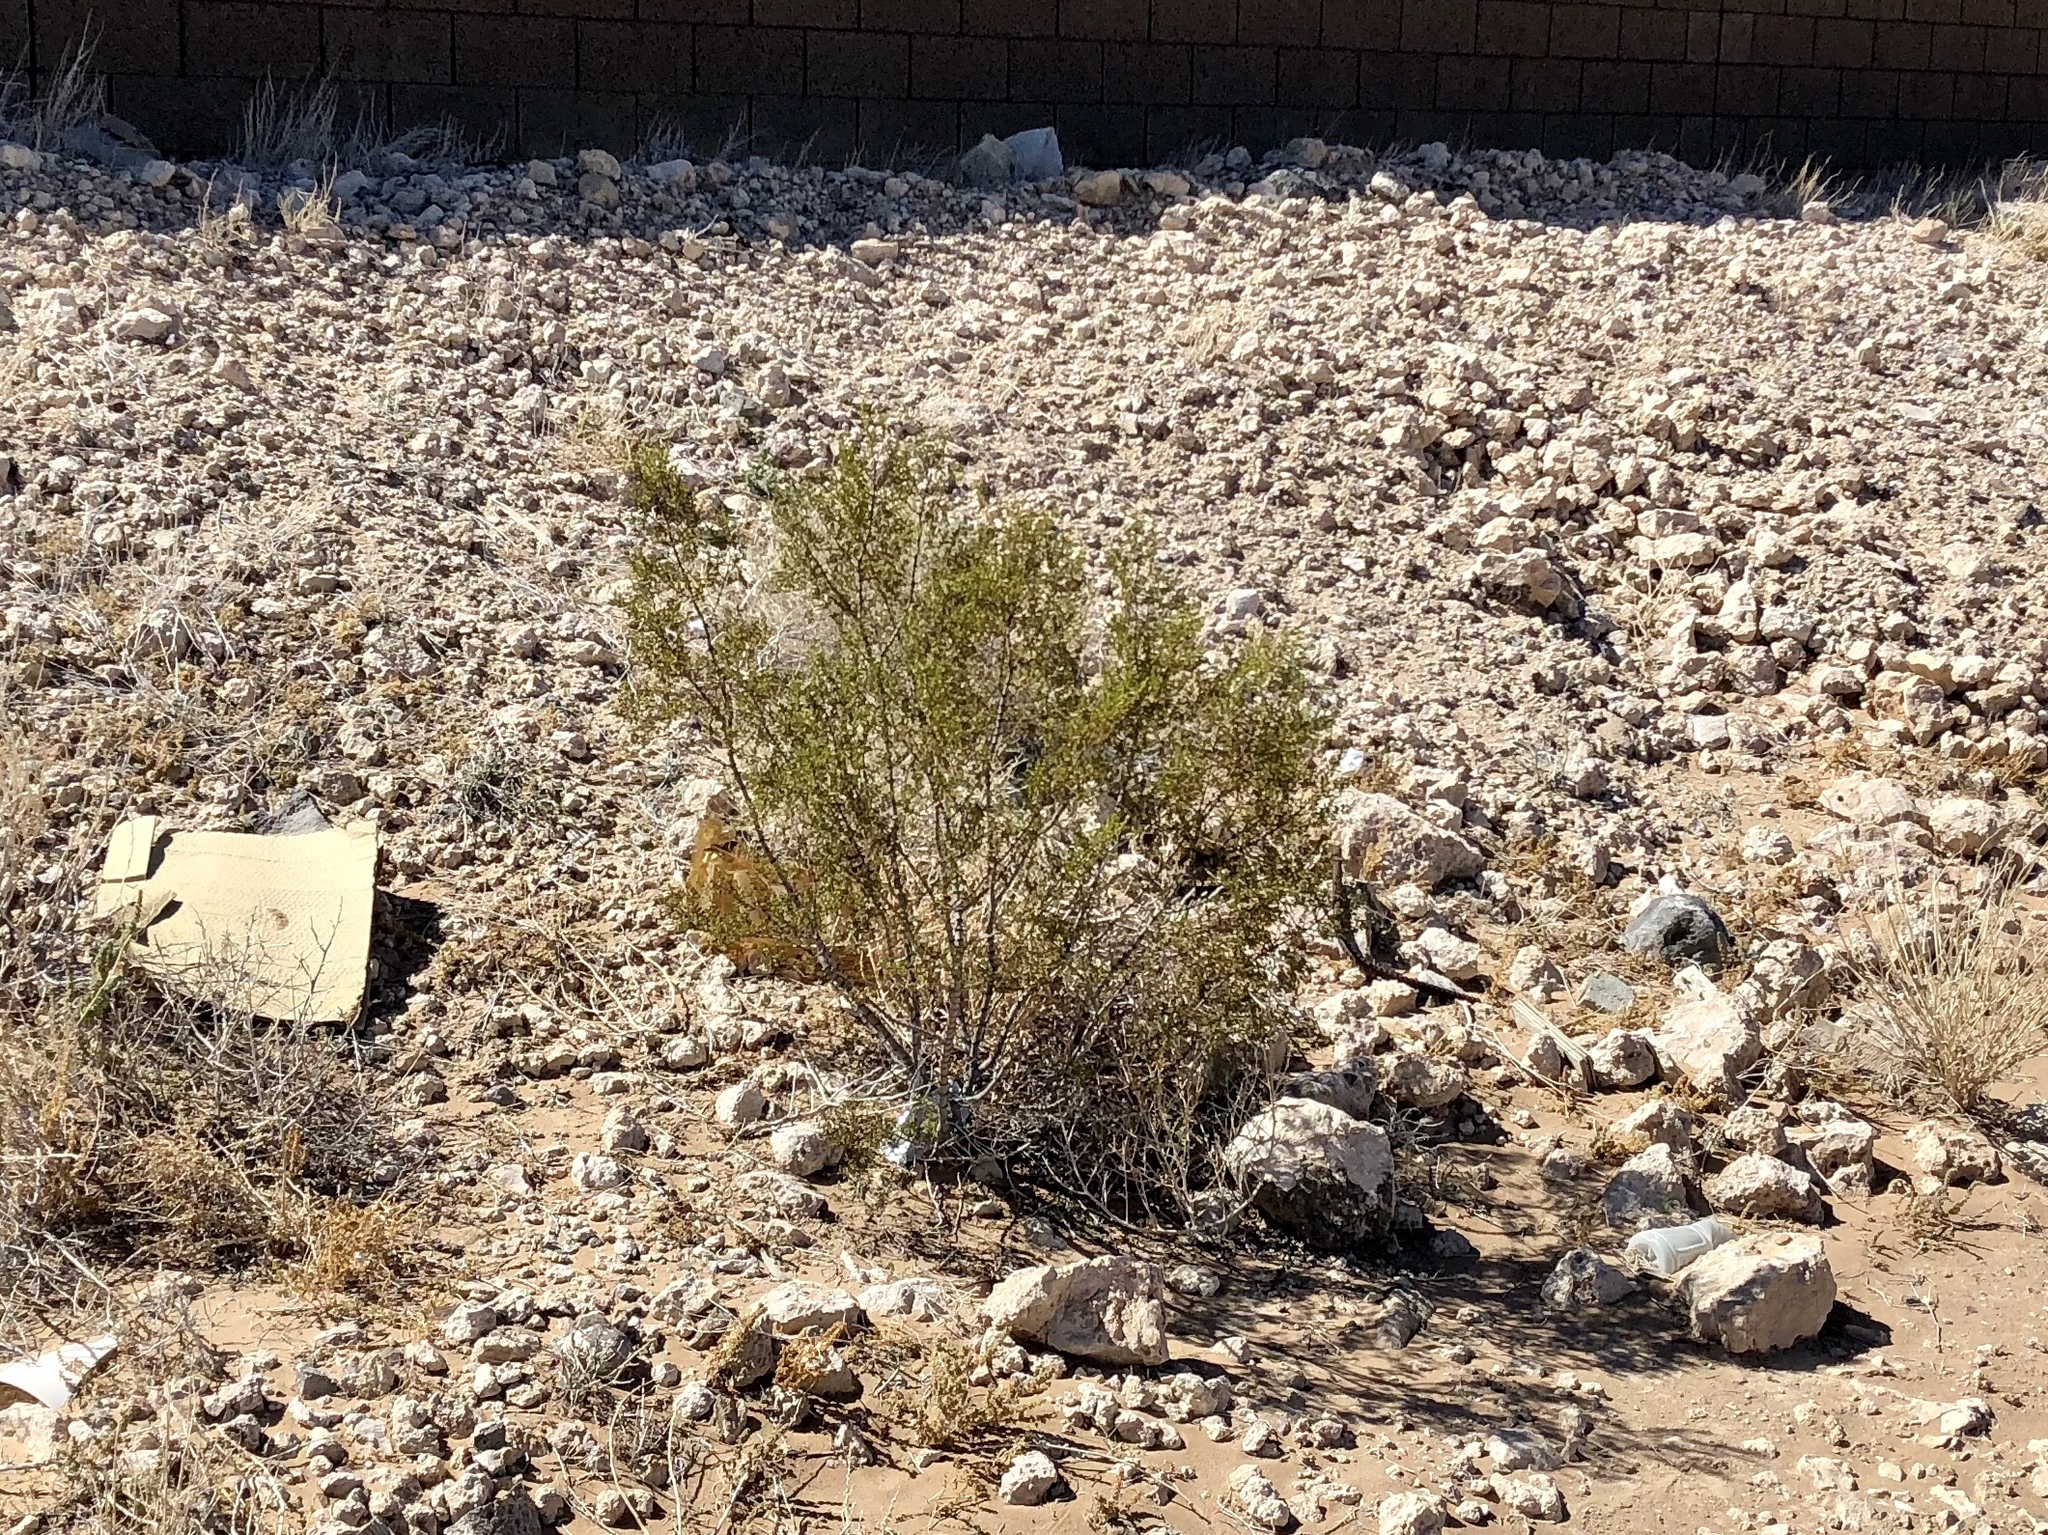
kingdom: Plantae
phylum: Tracheophyta
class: Magnoliopsida
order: Zygophyllales
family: Zygophyllaceae
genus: Larrea
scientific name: Larrea tridentata
